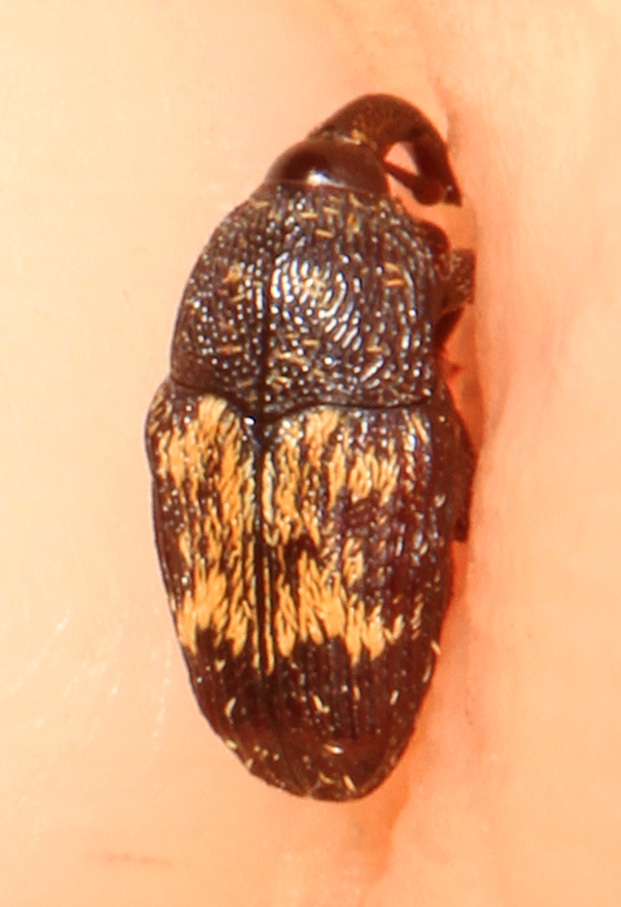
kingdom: Animalia
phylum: Arthropoda
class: Insecta
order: Coleoptera
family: Curculionidae
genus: Glyptobaris
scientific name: Glyptobaris lecontei
